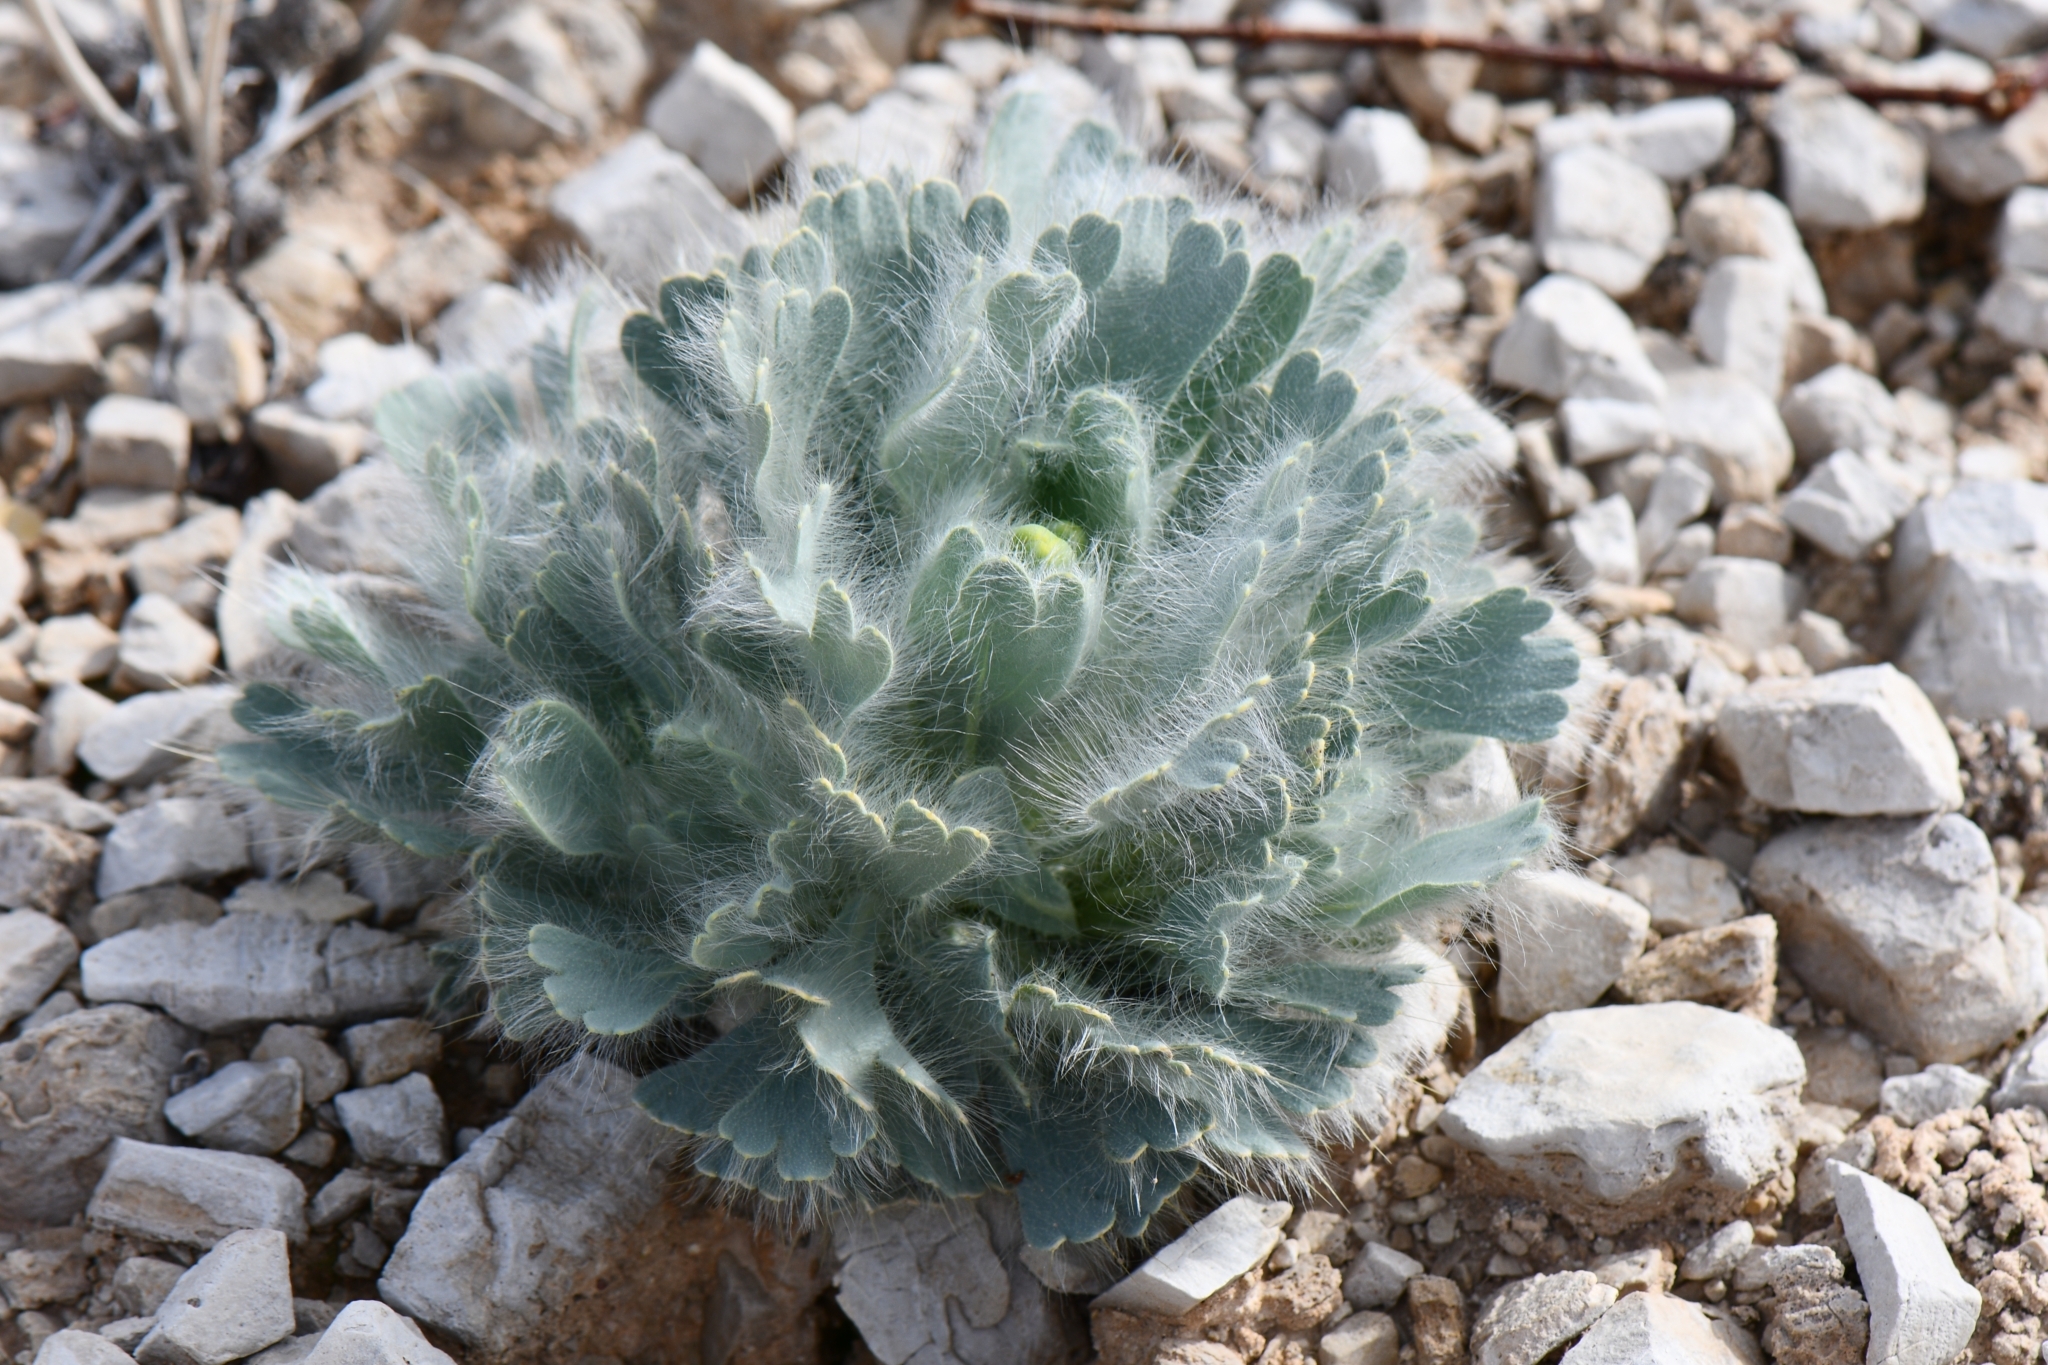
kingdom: Plantae
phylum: Tracheophyta
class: Magnoliopsida
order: Ranunculales
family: Papaveraceae
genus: Arctomecon
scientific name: Arctomecon californicum
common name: Golden bearclaw-poppy
